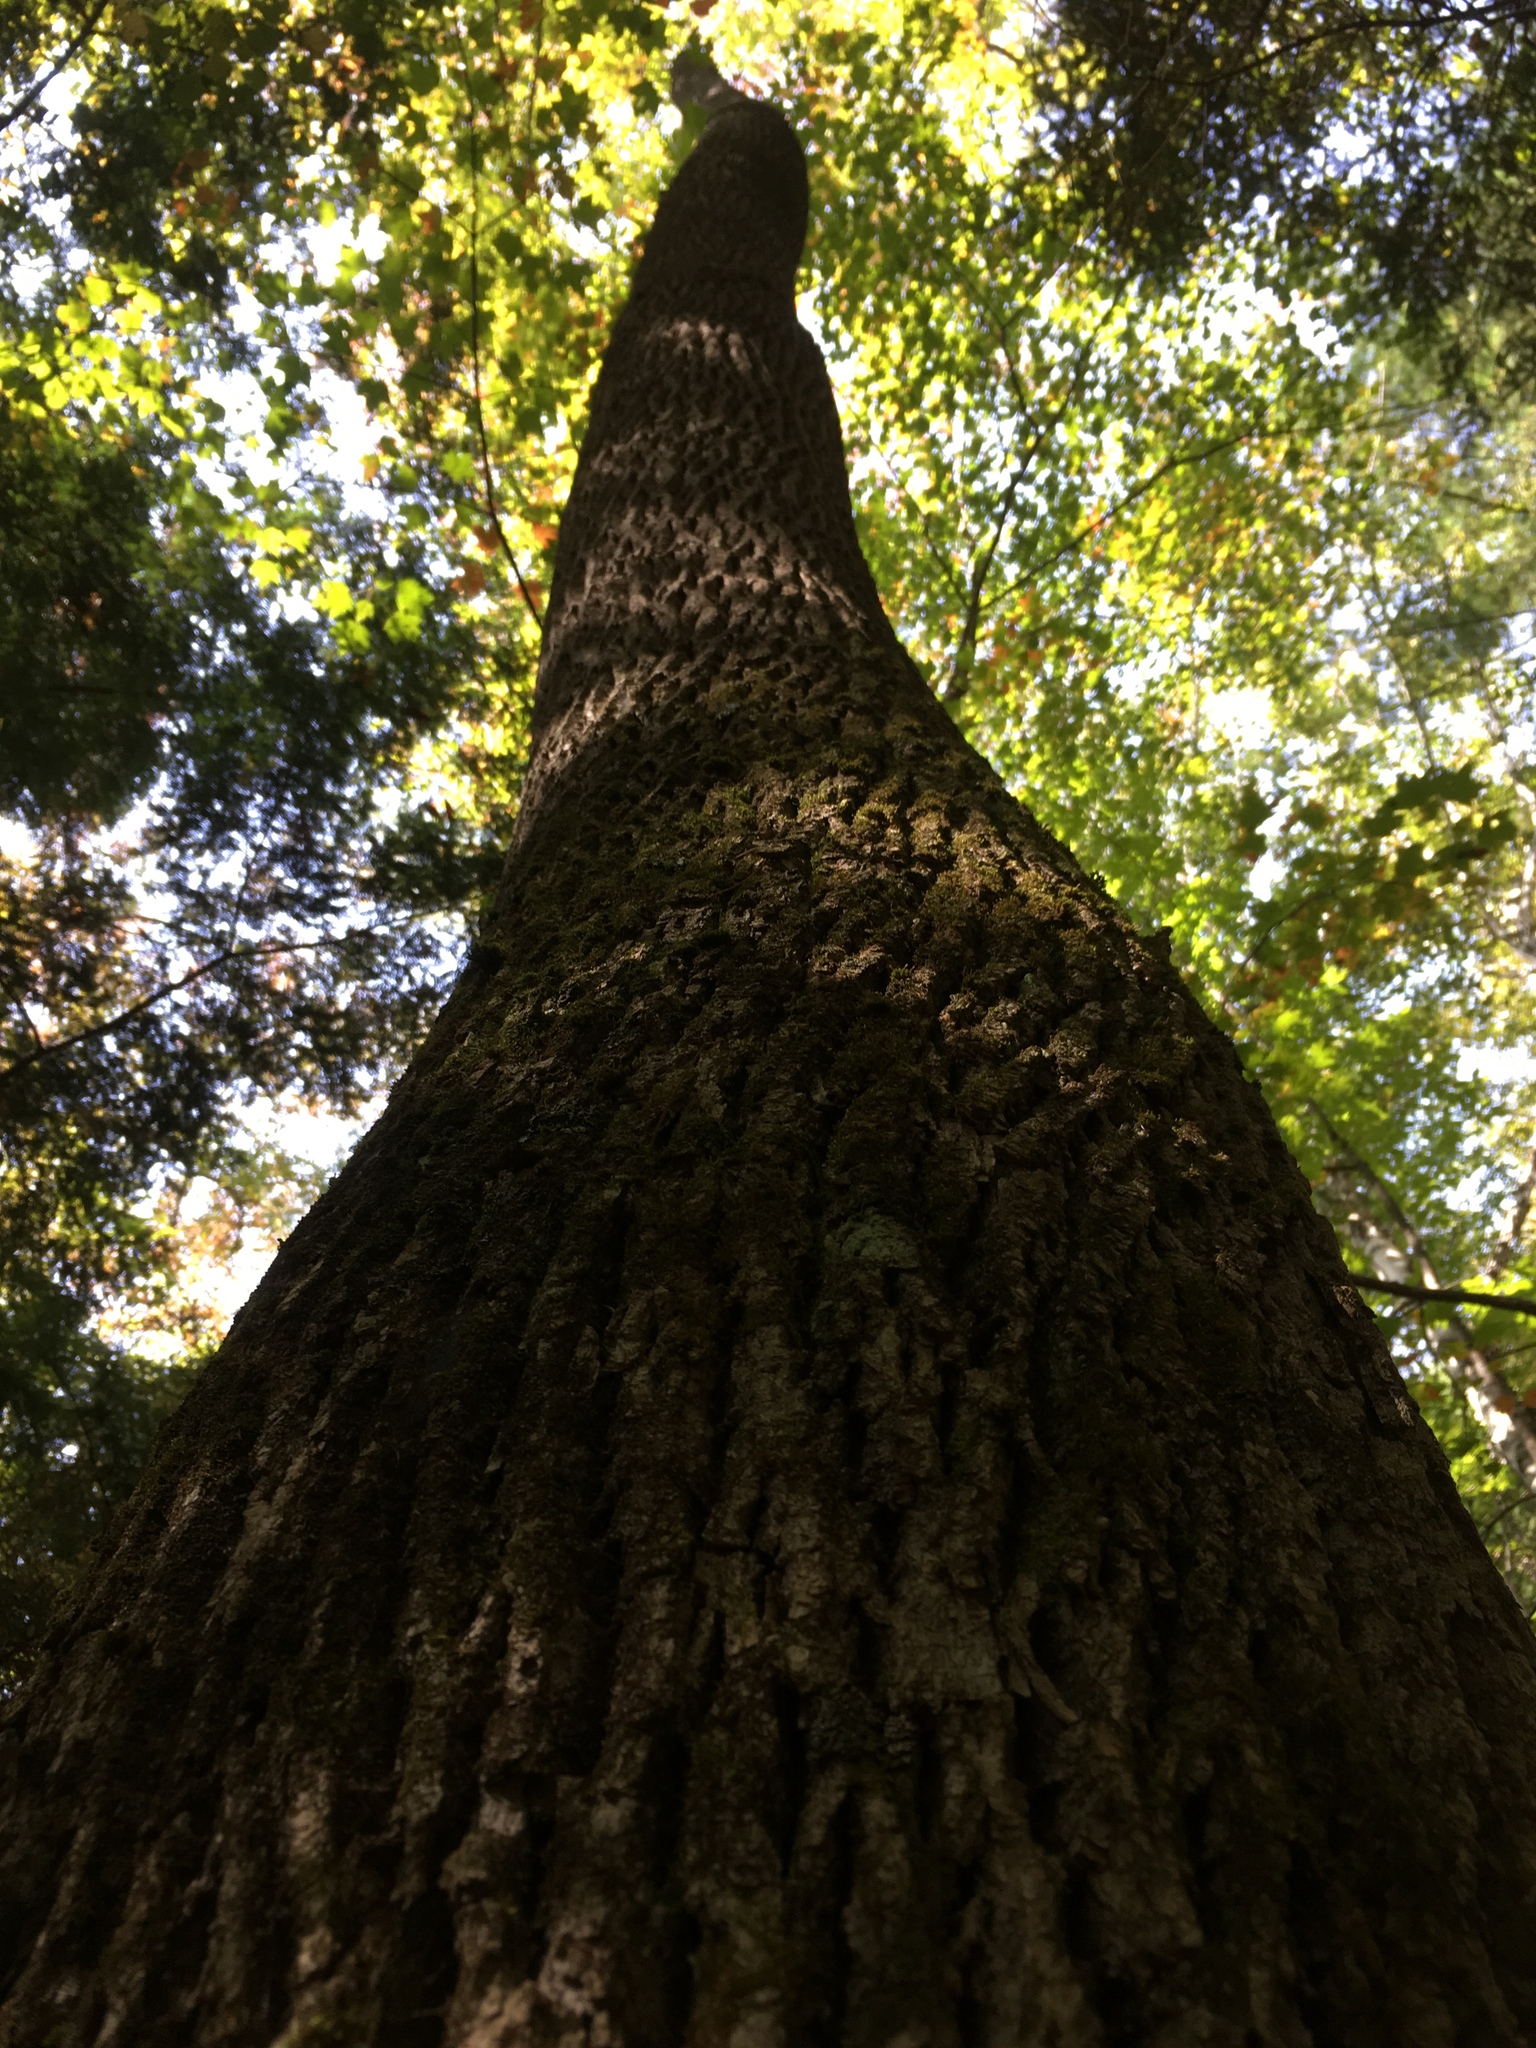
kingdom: Plantae
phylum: Tracheophyta
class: Magnoliopsida
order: Lamiales
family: Oleaceae
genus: Fraxinus
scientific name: Fraxinus americana
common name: White ash
